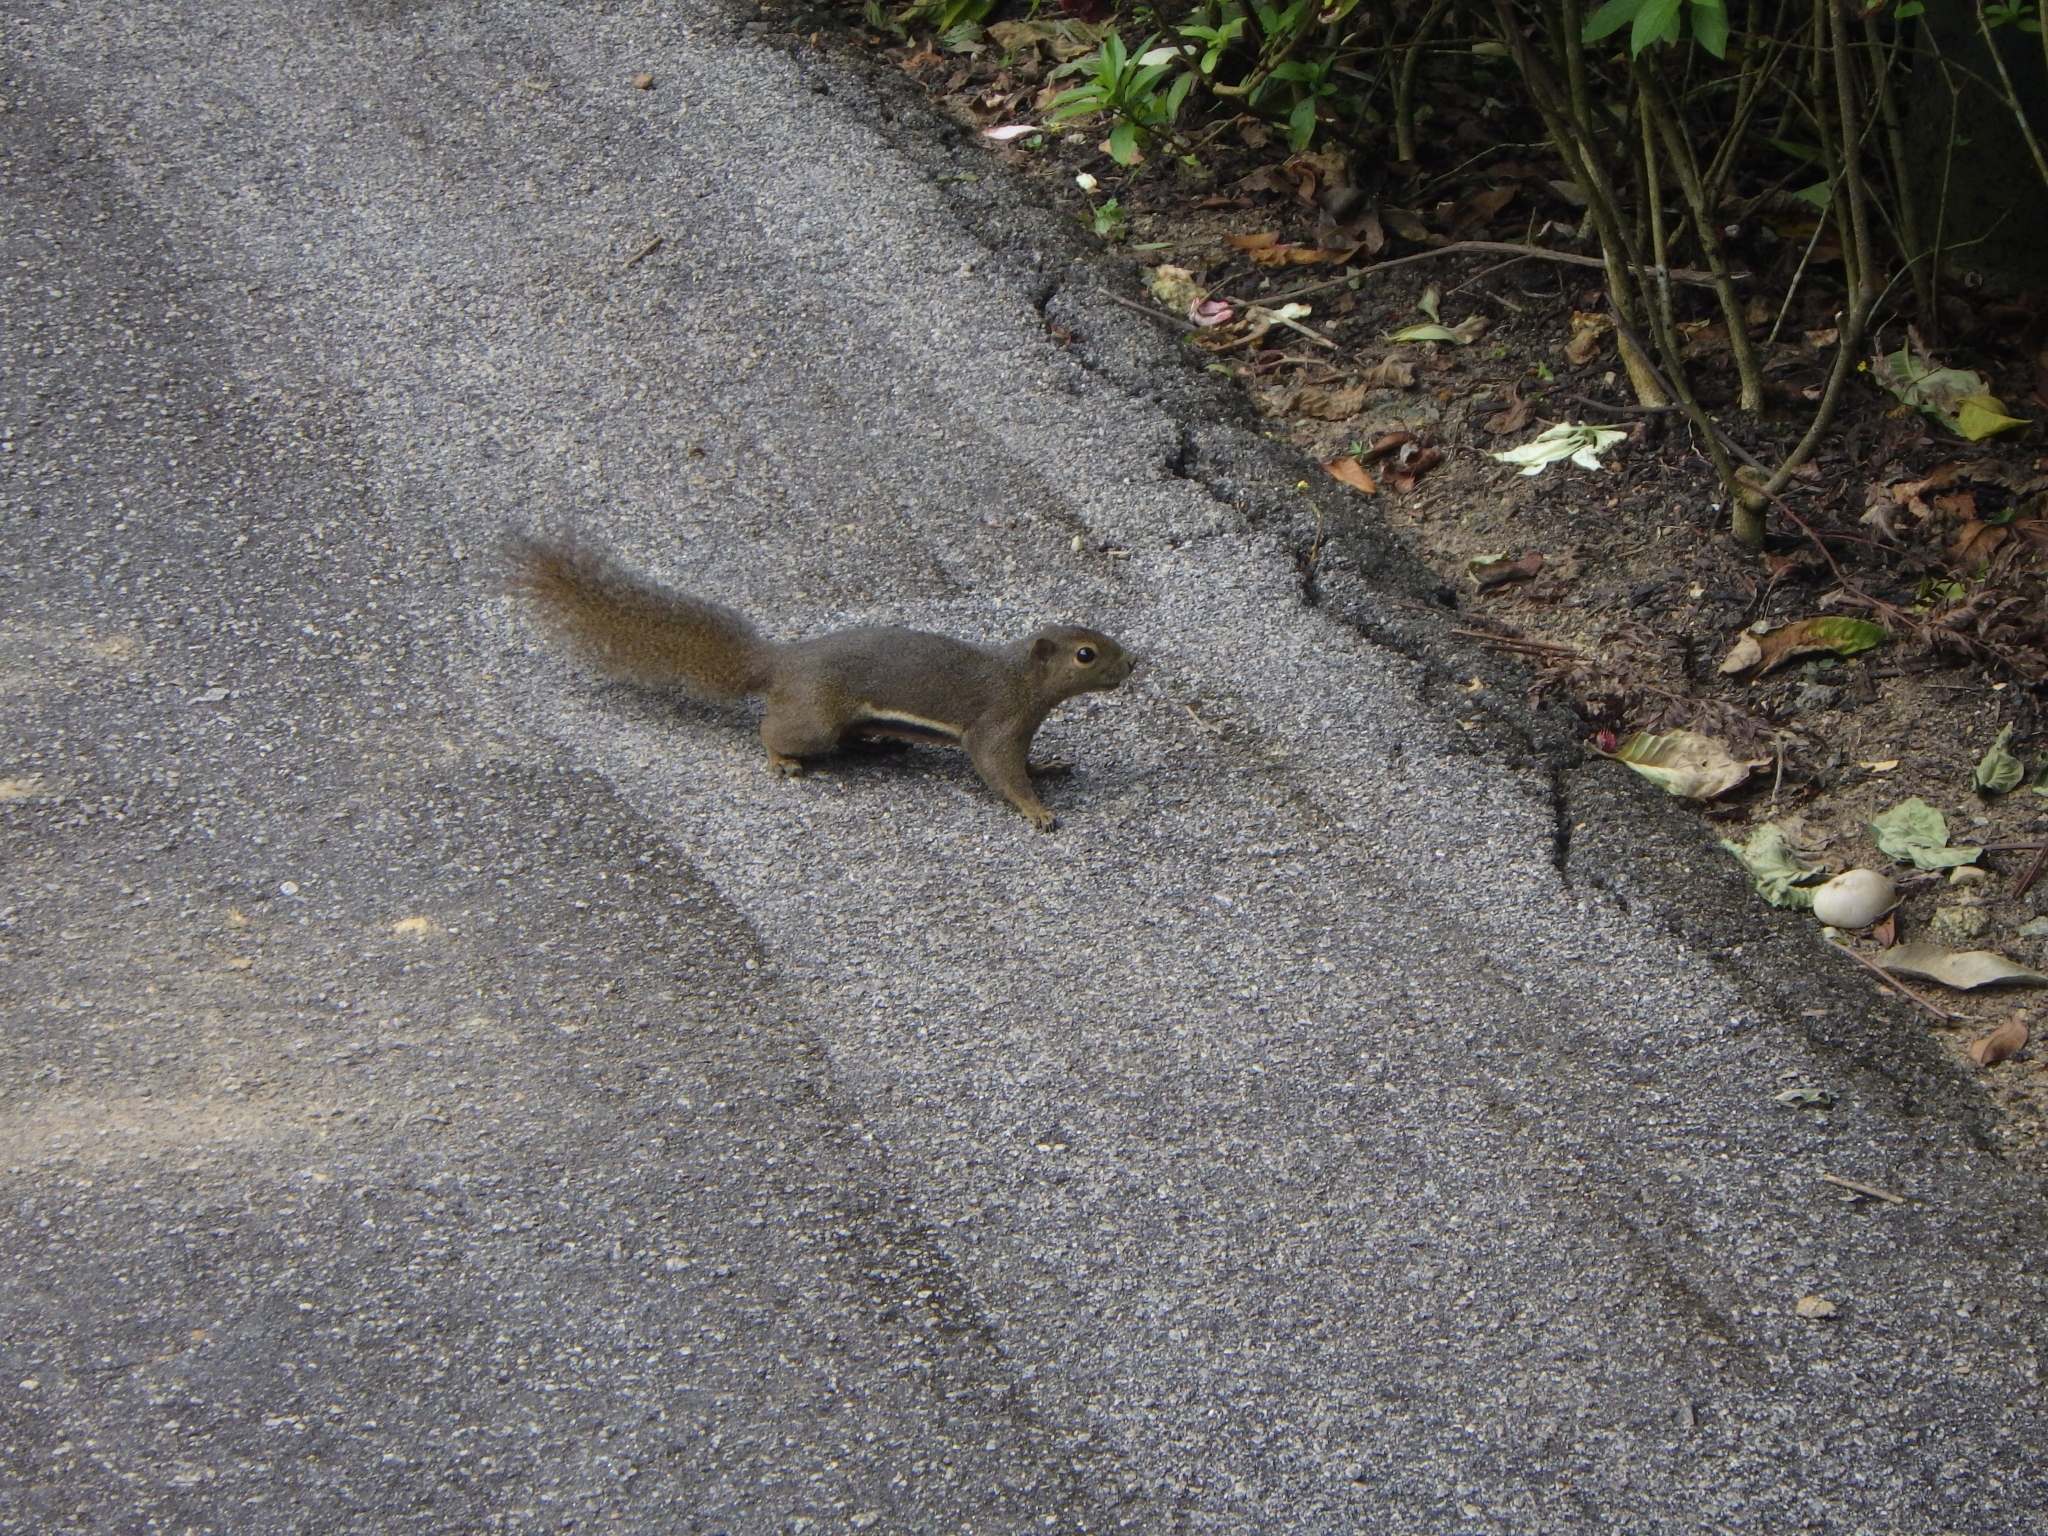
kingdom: Animalia
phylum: Chordata
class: Mammalia
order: Rodentia
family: Sciuridae
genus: Callosciurus
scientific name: Callosciurus notatus
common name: Plantain squirrel
